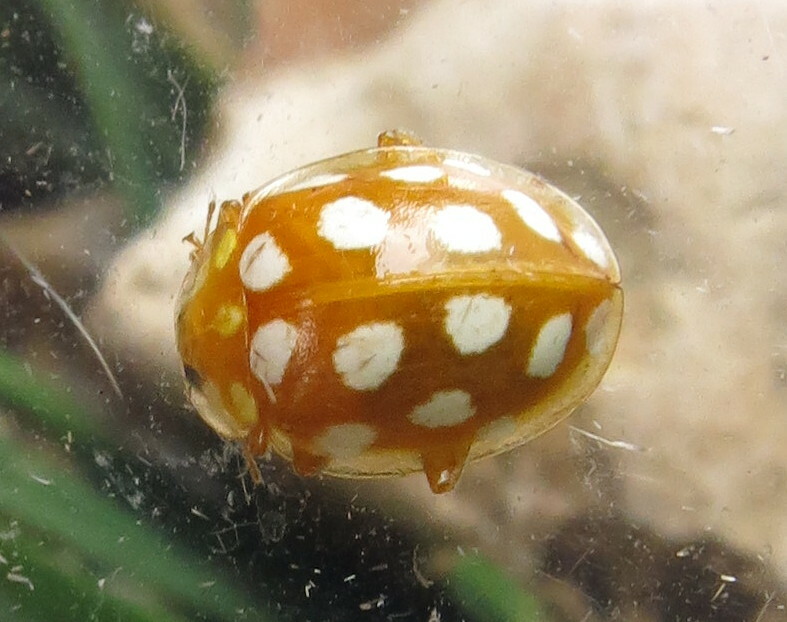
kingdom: Animalia
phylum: Arthropoda
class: Insecta
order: Coleoptera
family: Coccinellidae
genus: Halyzia
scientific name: Halyzia sedecimguttata
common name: Orange ladybird
